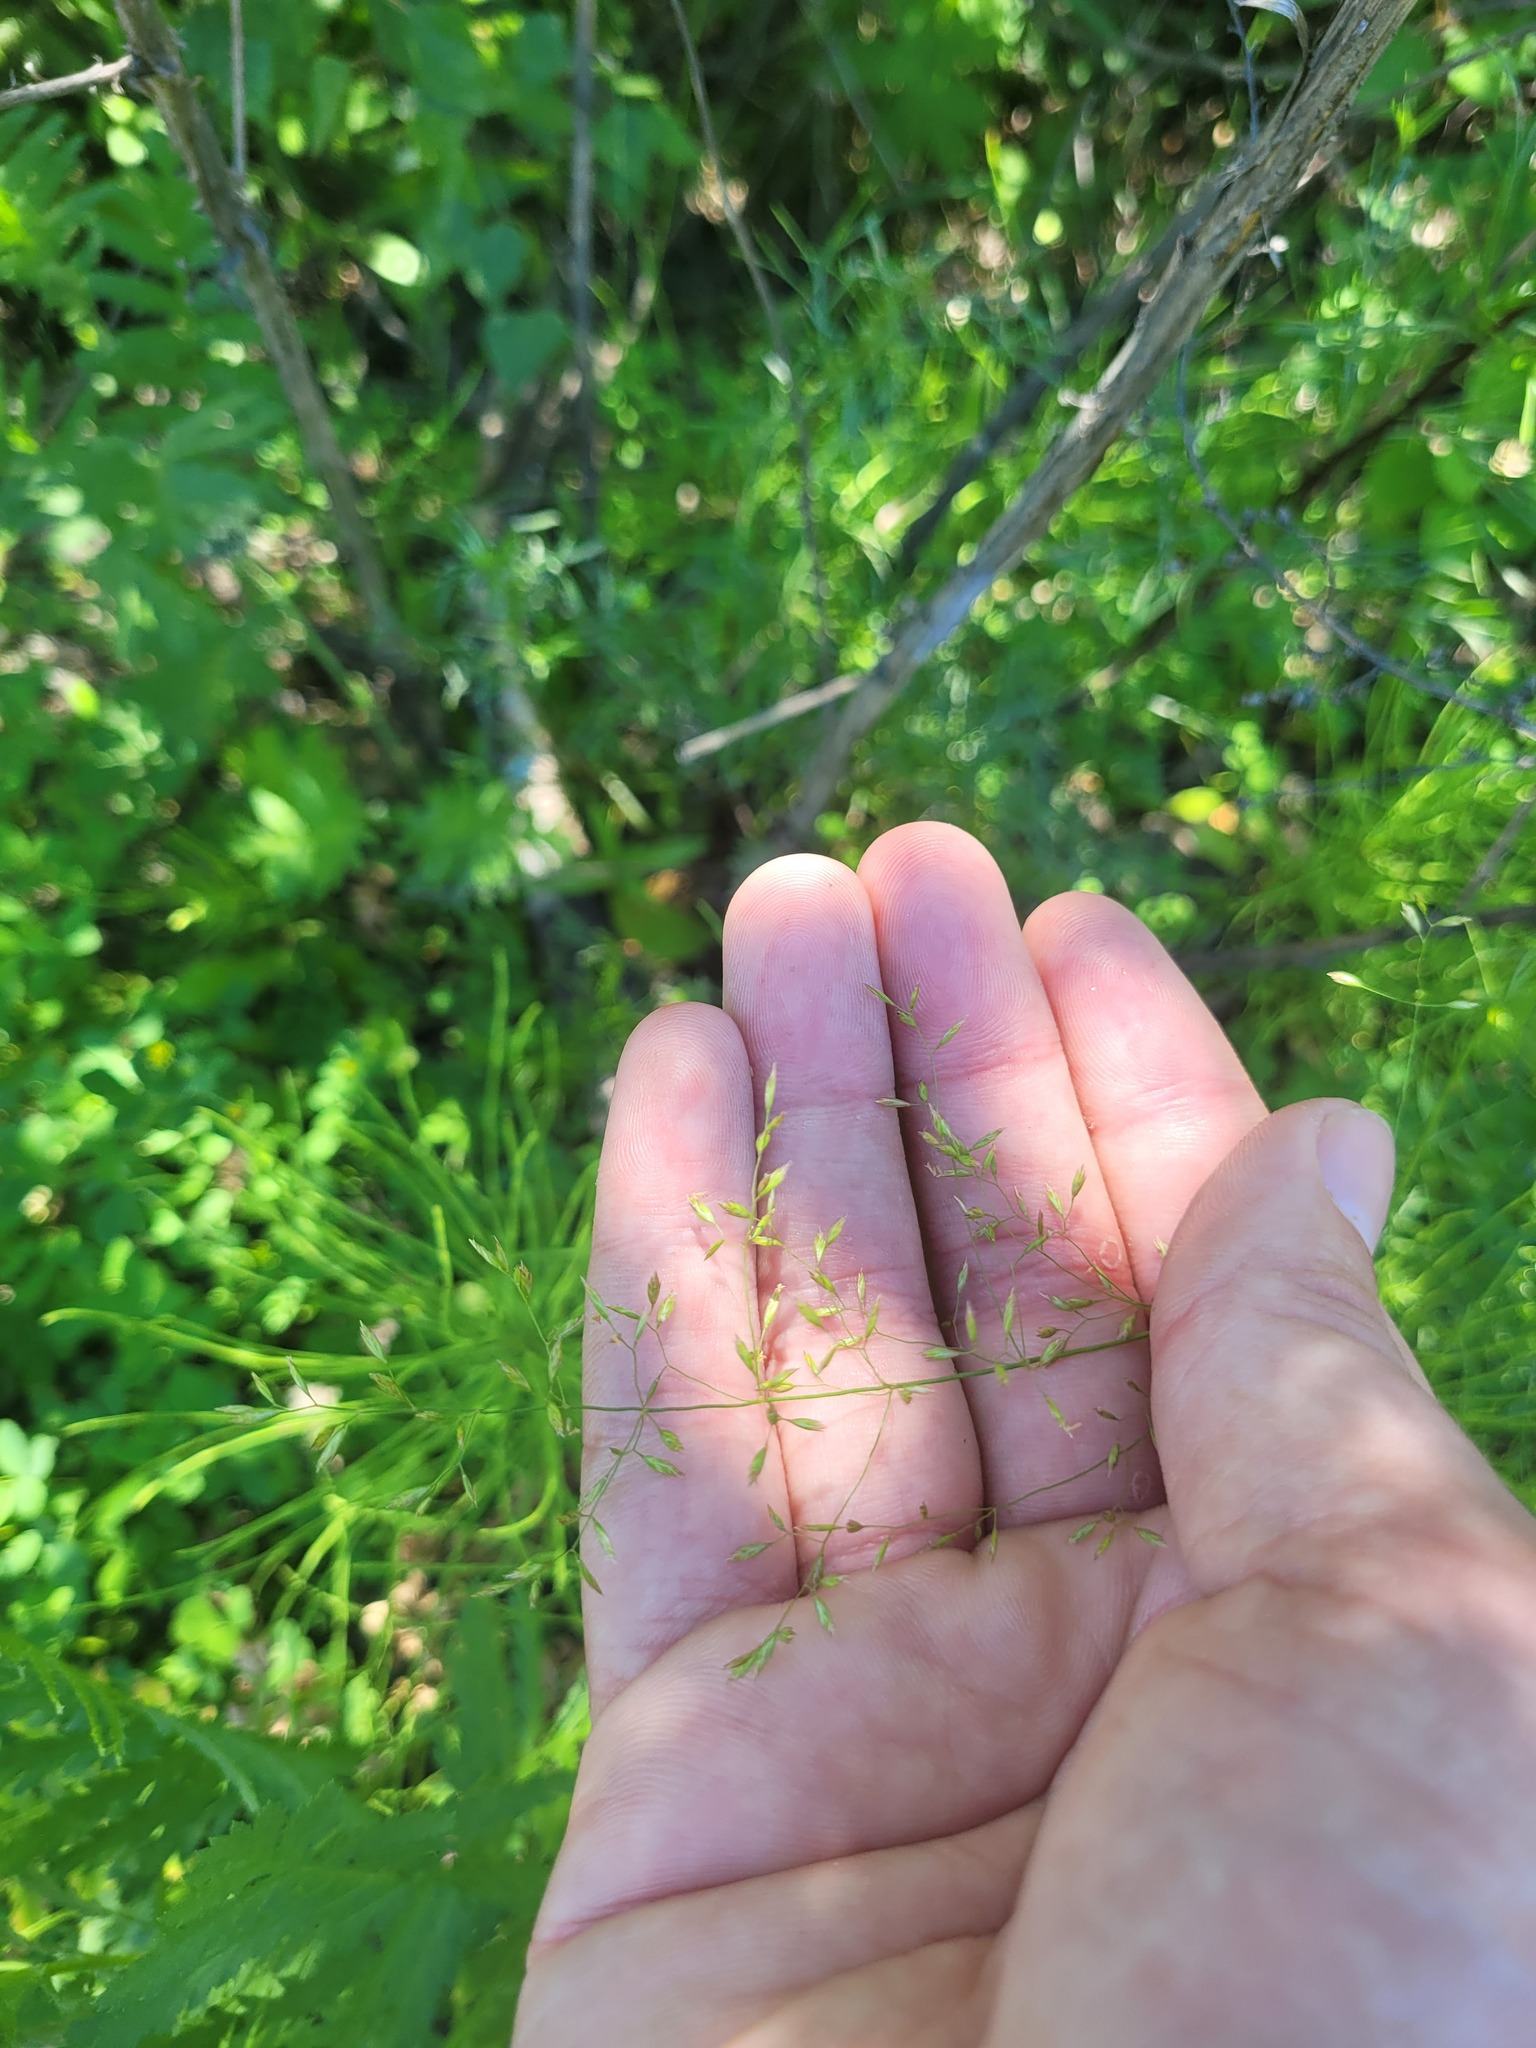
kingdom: Plantae
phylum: Tracheophyta
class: Liliopsida
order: Poales
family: Poaceae
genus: Poa
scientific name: Poa palustris
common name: Swamp meadow-grass
